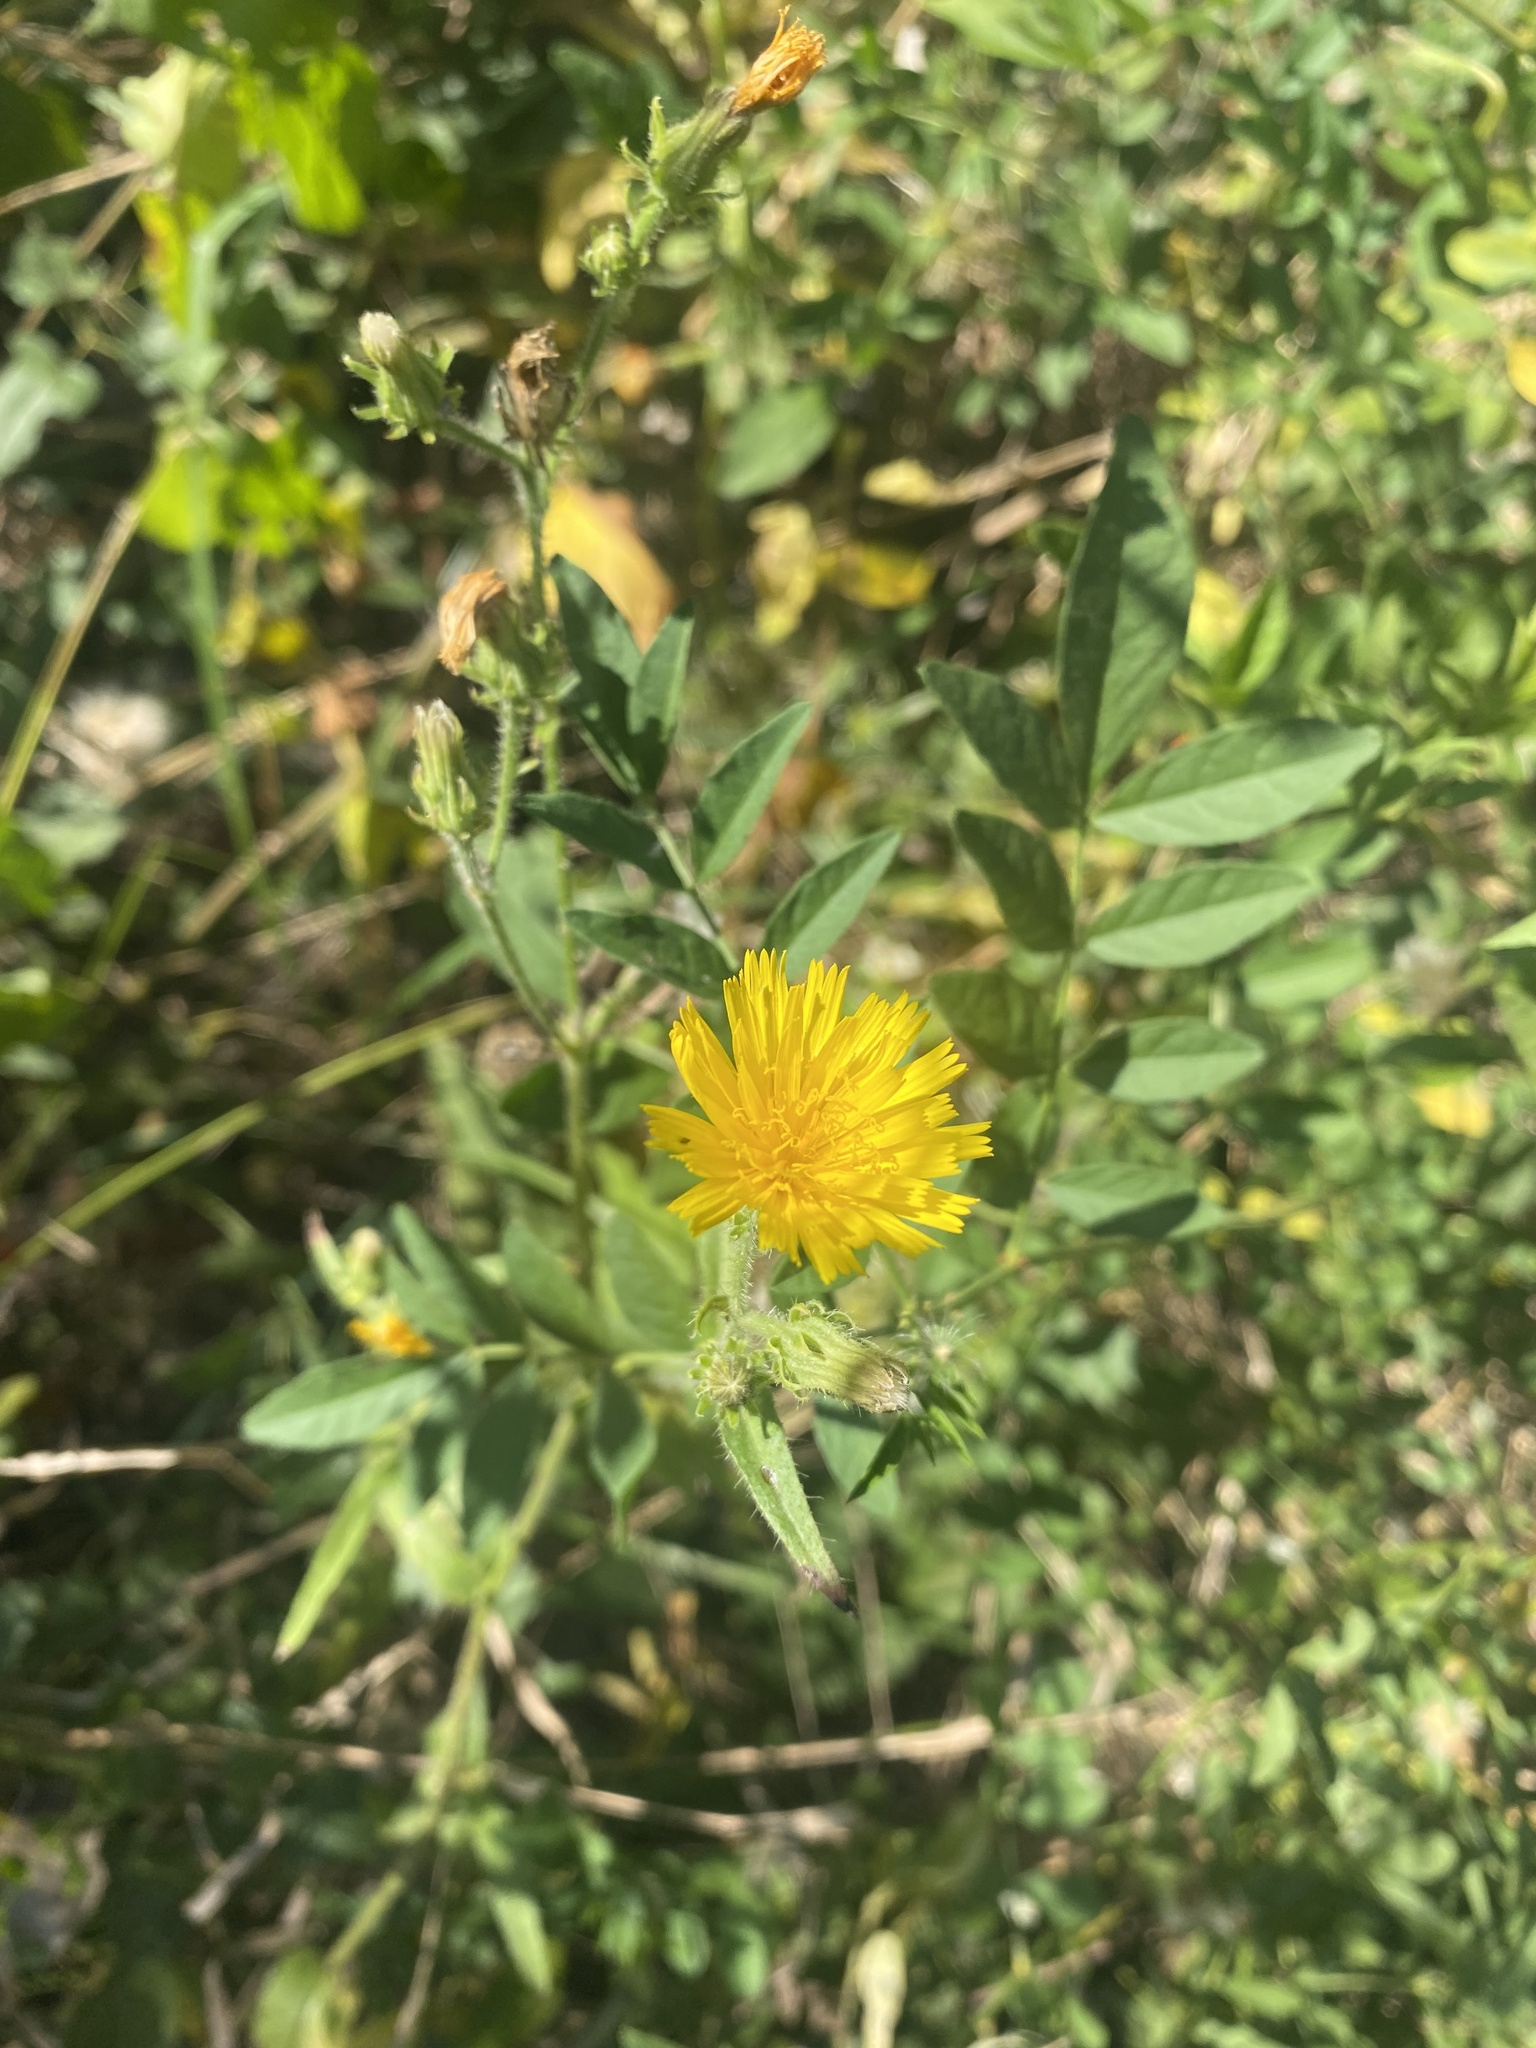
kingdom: Plantae
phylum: Tracheophyta
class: Magnoliopsida
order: Asterales
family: Asteraceae
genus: Picris
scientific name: Picris hieracioides
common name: Hawkweed oxtongue
